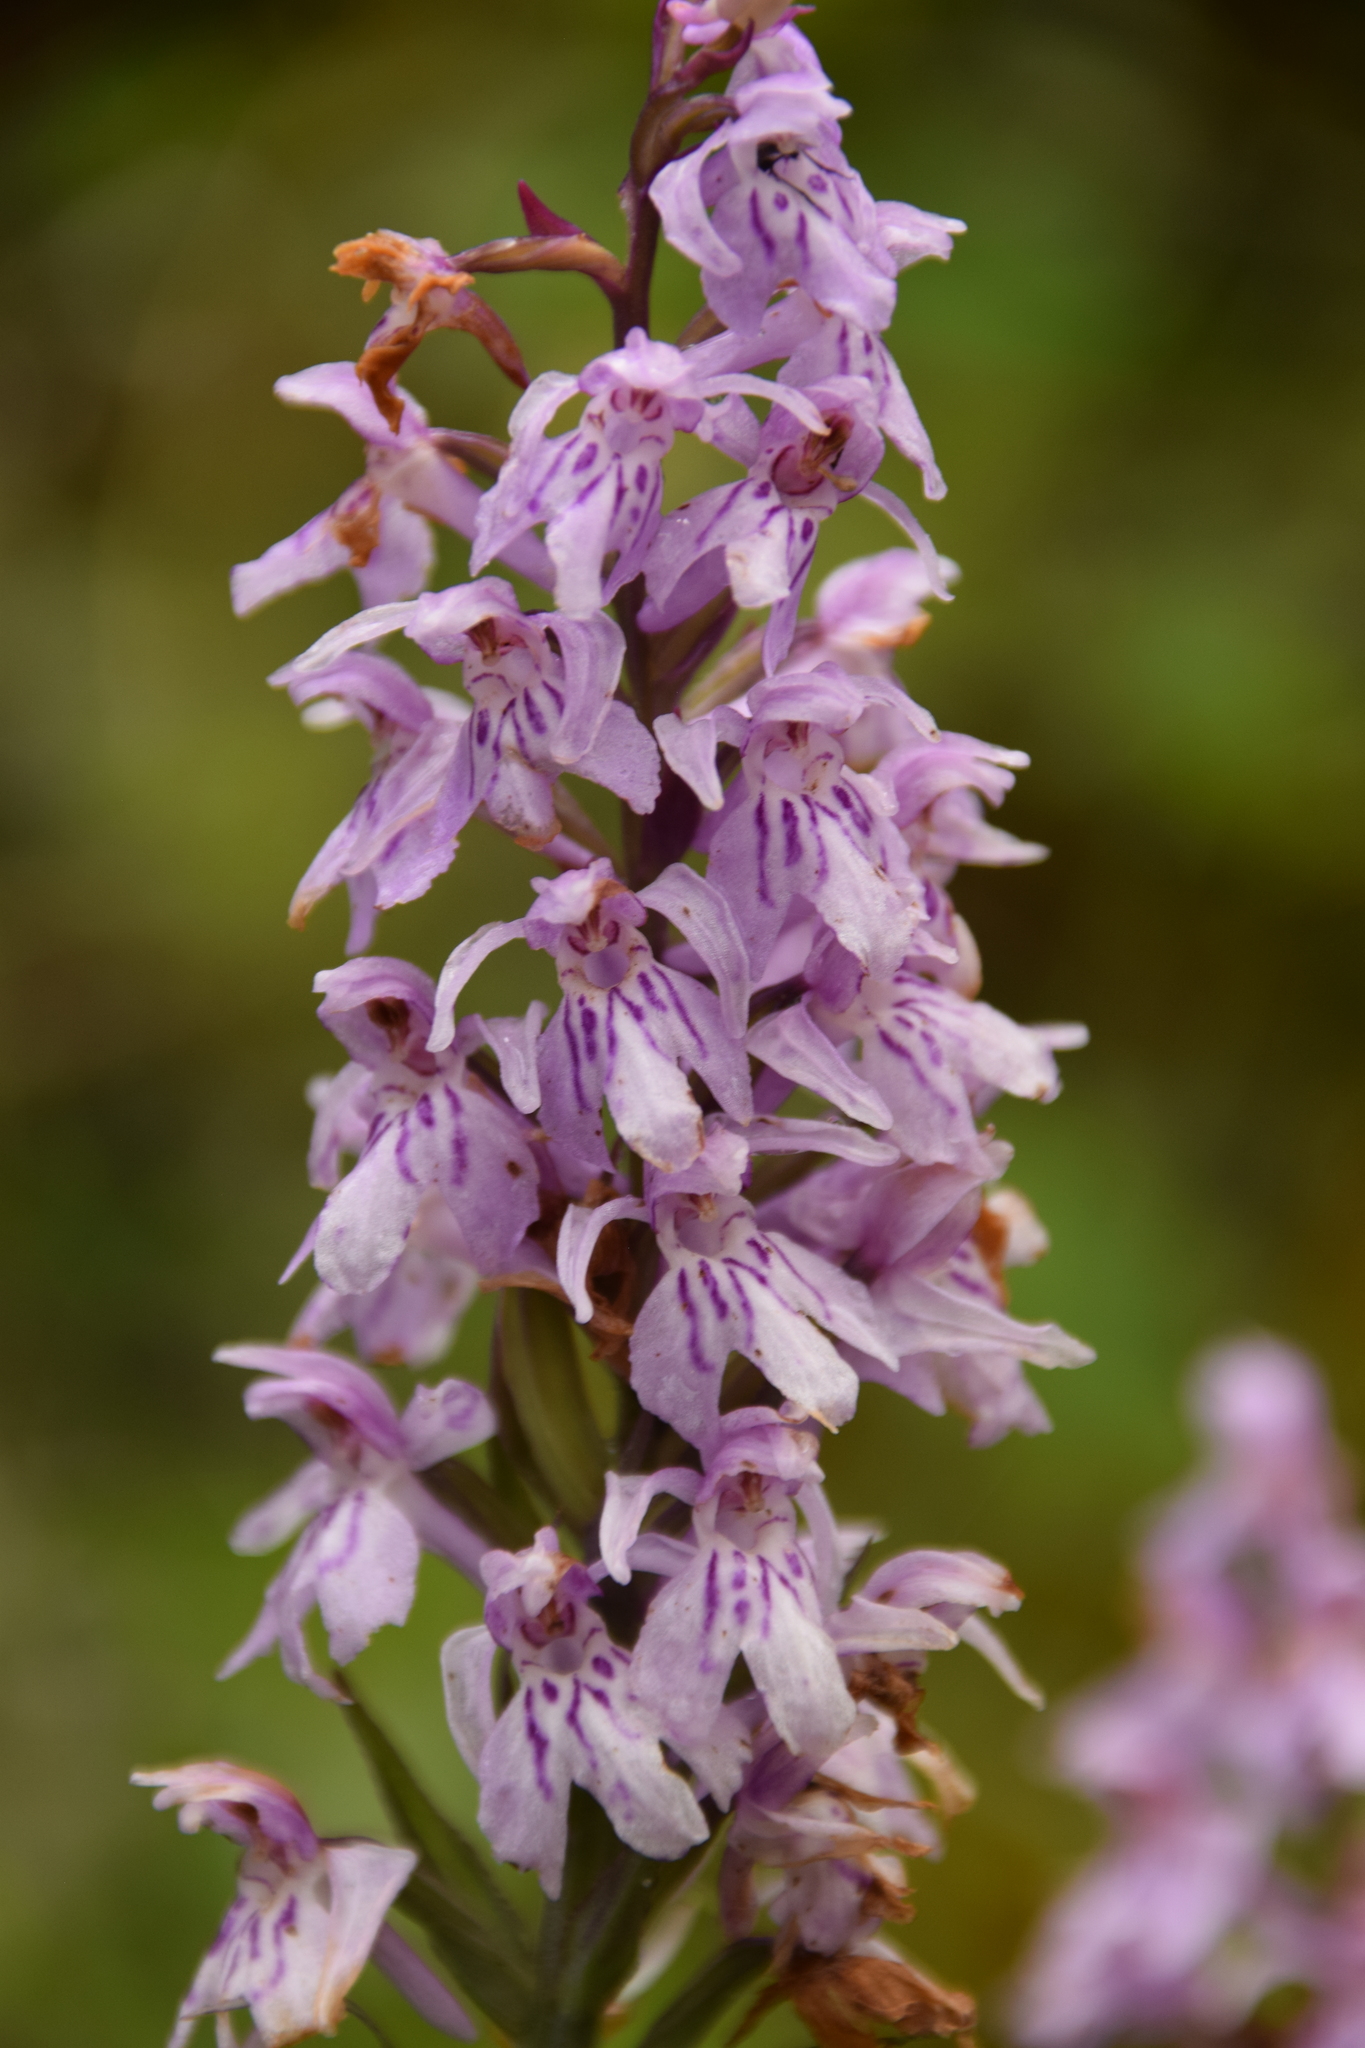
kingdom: Plantae
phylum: Tracheophyta
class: Liliopsida
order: Asparagales
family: Orchidaceae
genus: Dactylorhiza
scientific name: Dactylorhiza maculata
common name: Heath spotted-orchid
